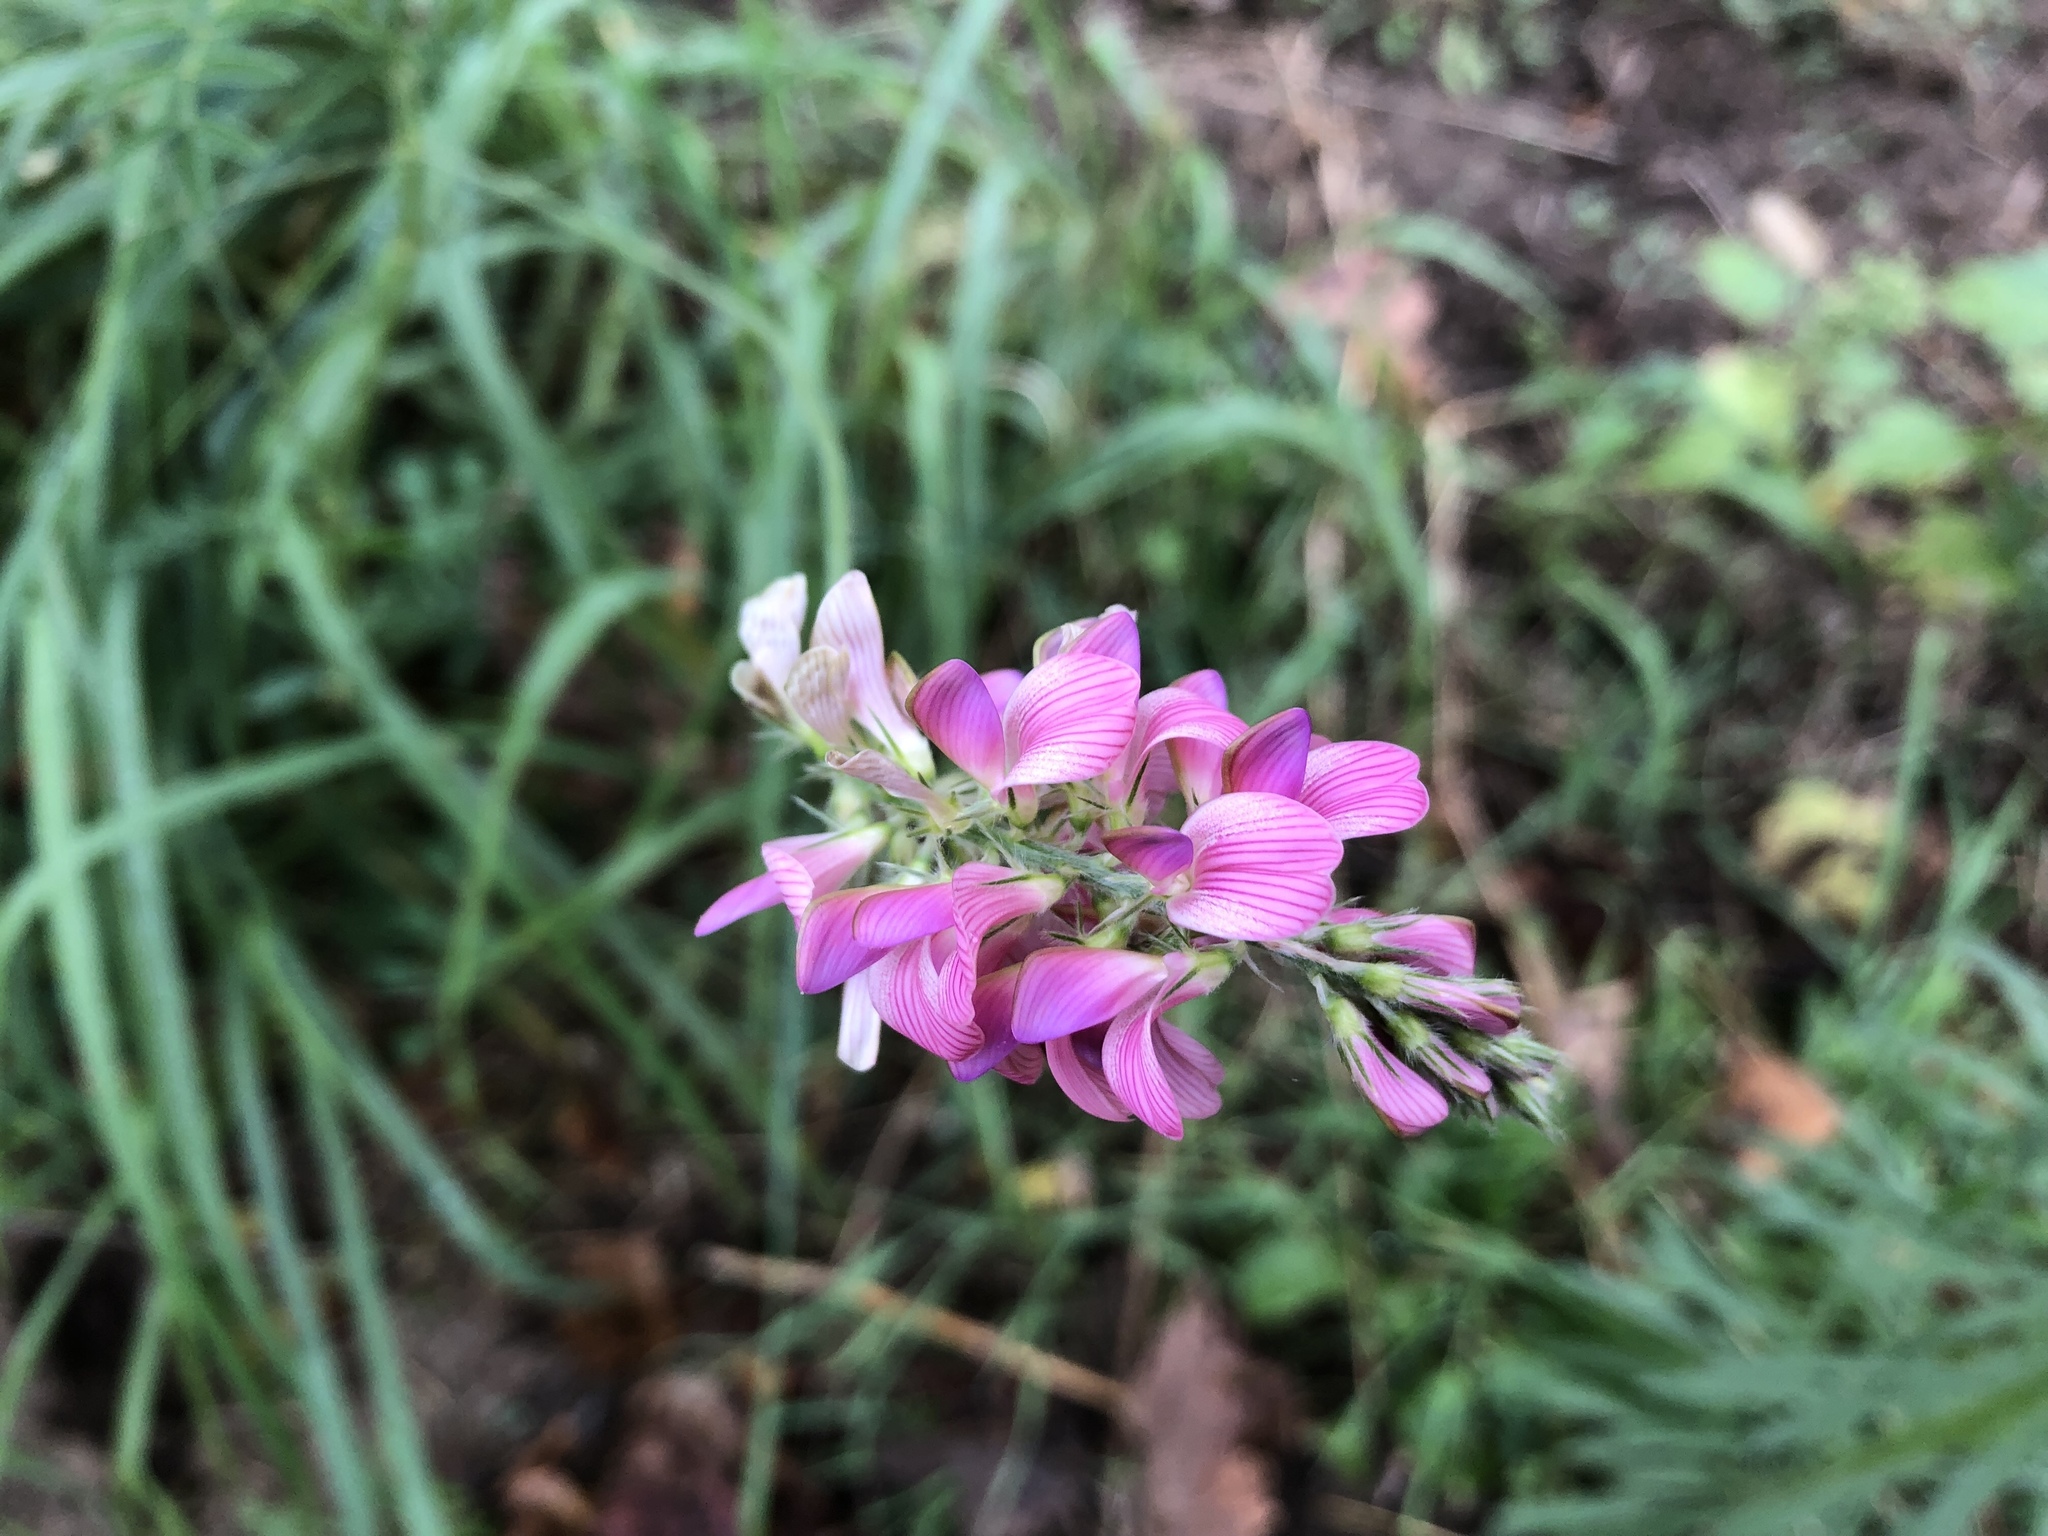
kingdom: Plantae
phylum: Tracheophyta
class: Magnoliopsida
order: Fabales
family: Fabaceae
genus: Onobrychis
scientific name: Onobrychis viciifolia
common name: Sainfoin
